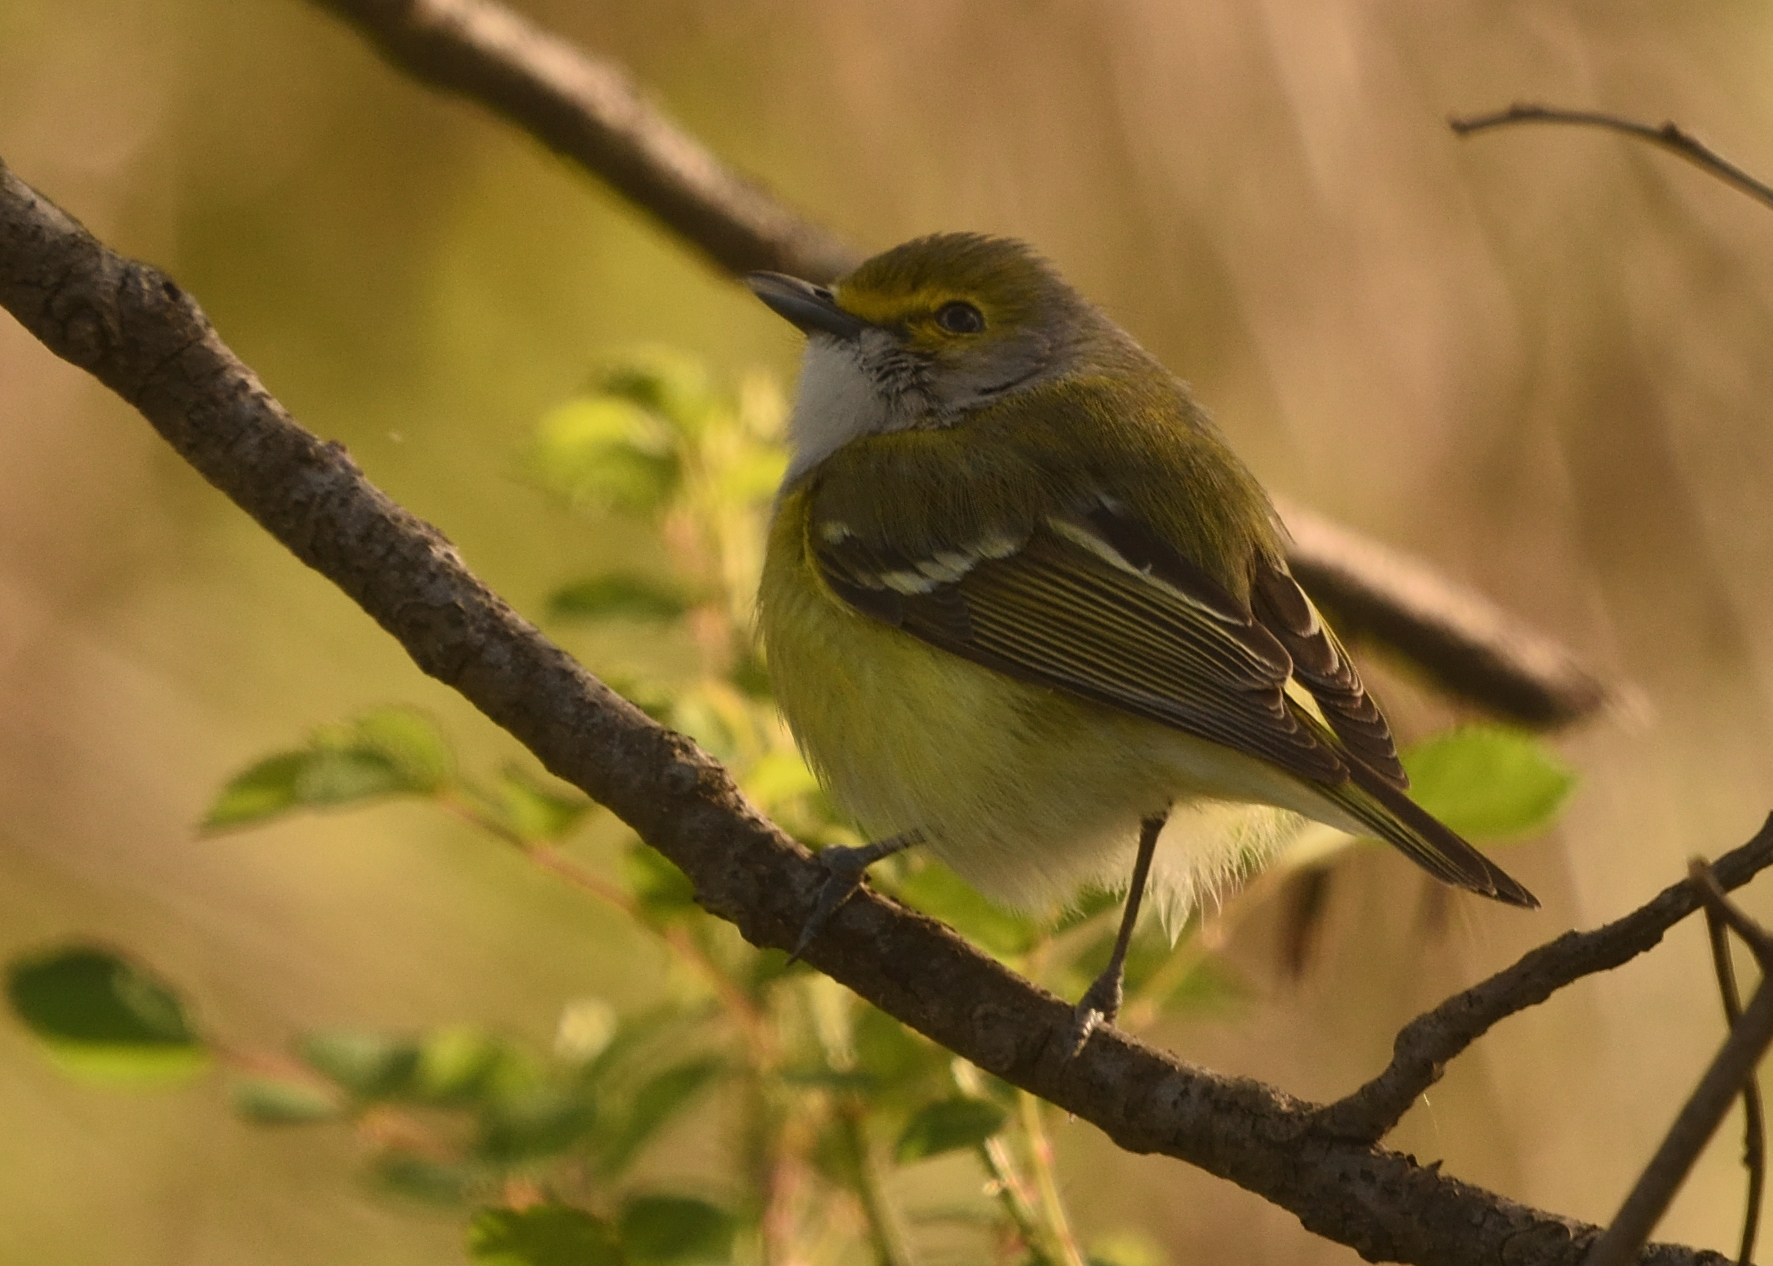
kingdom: Animalia
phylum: Chordata
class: Aves
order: Passeriformes
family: Vireonidae
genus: Vireo
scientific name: Vireo griseus
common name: White-eyed vireo
